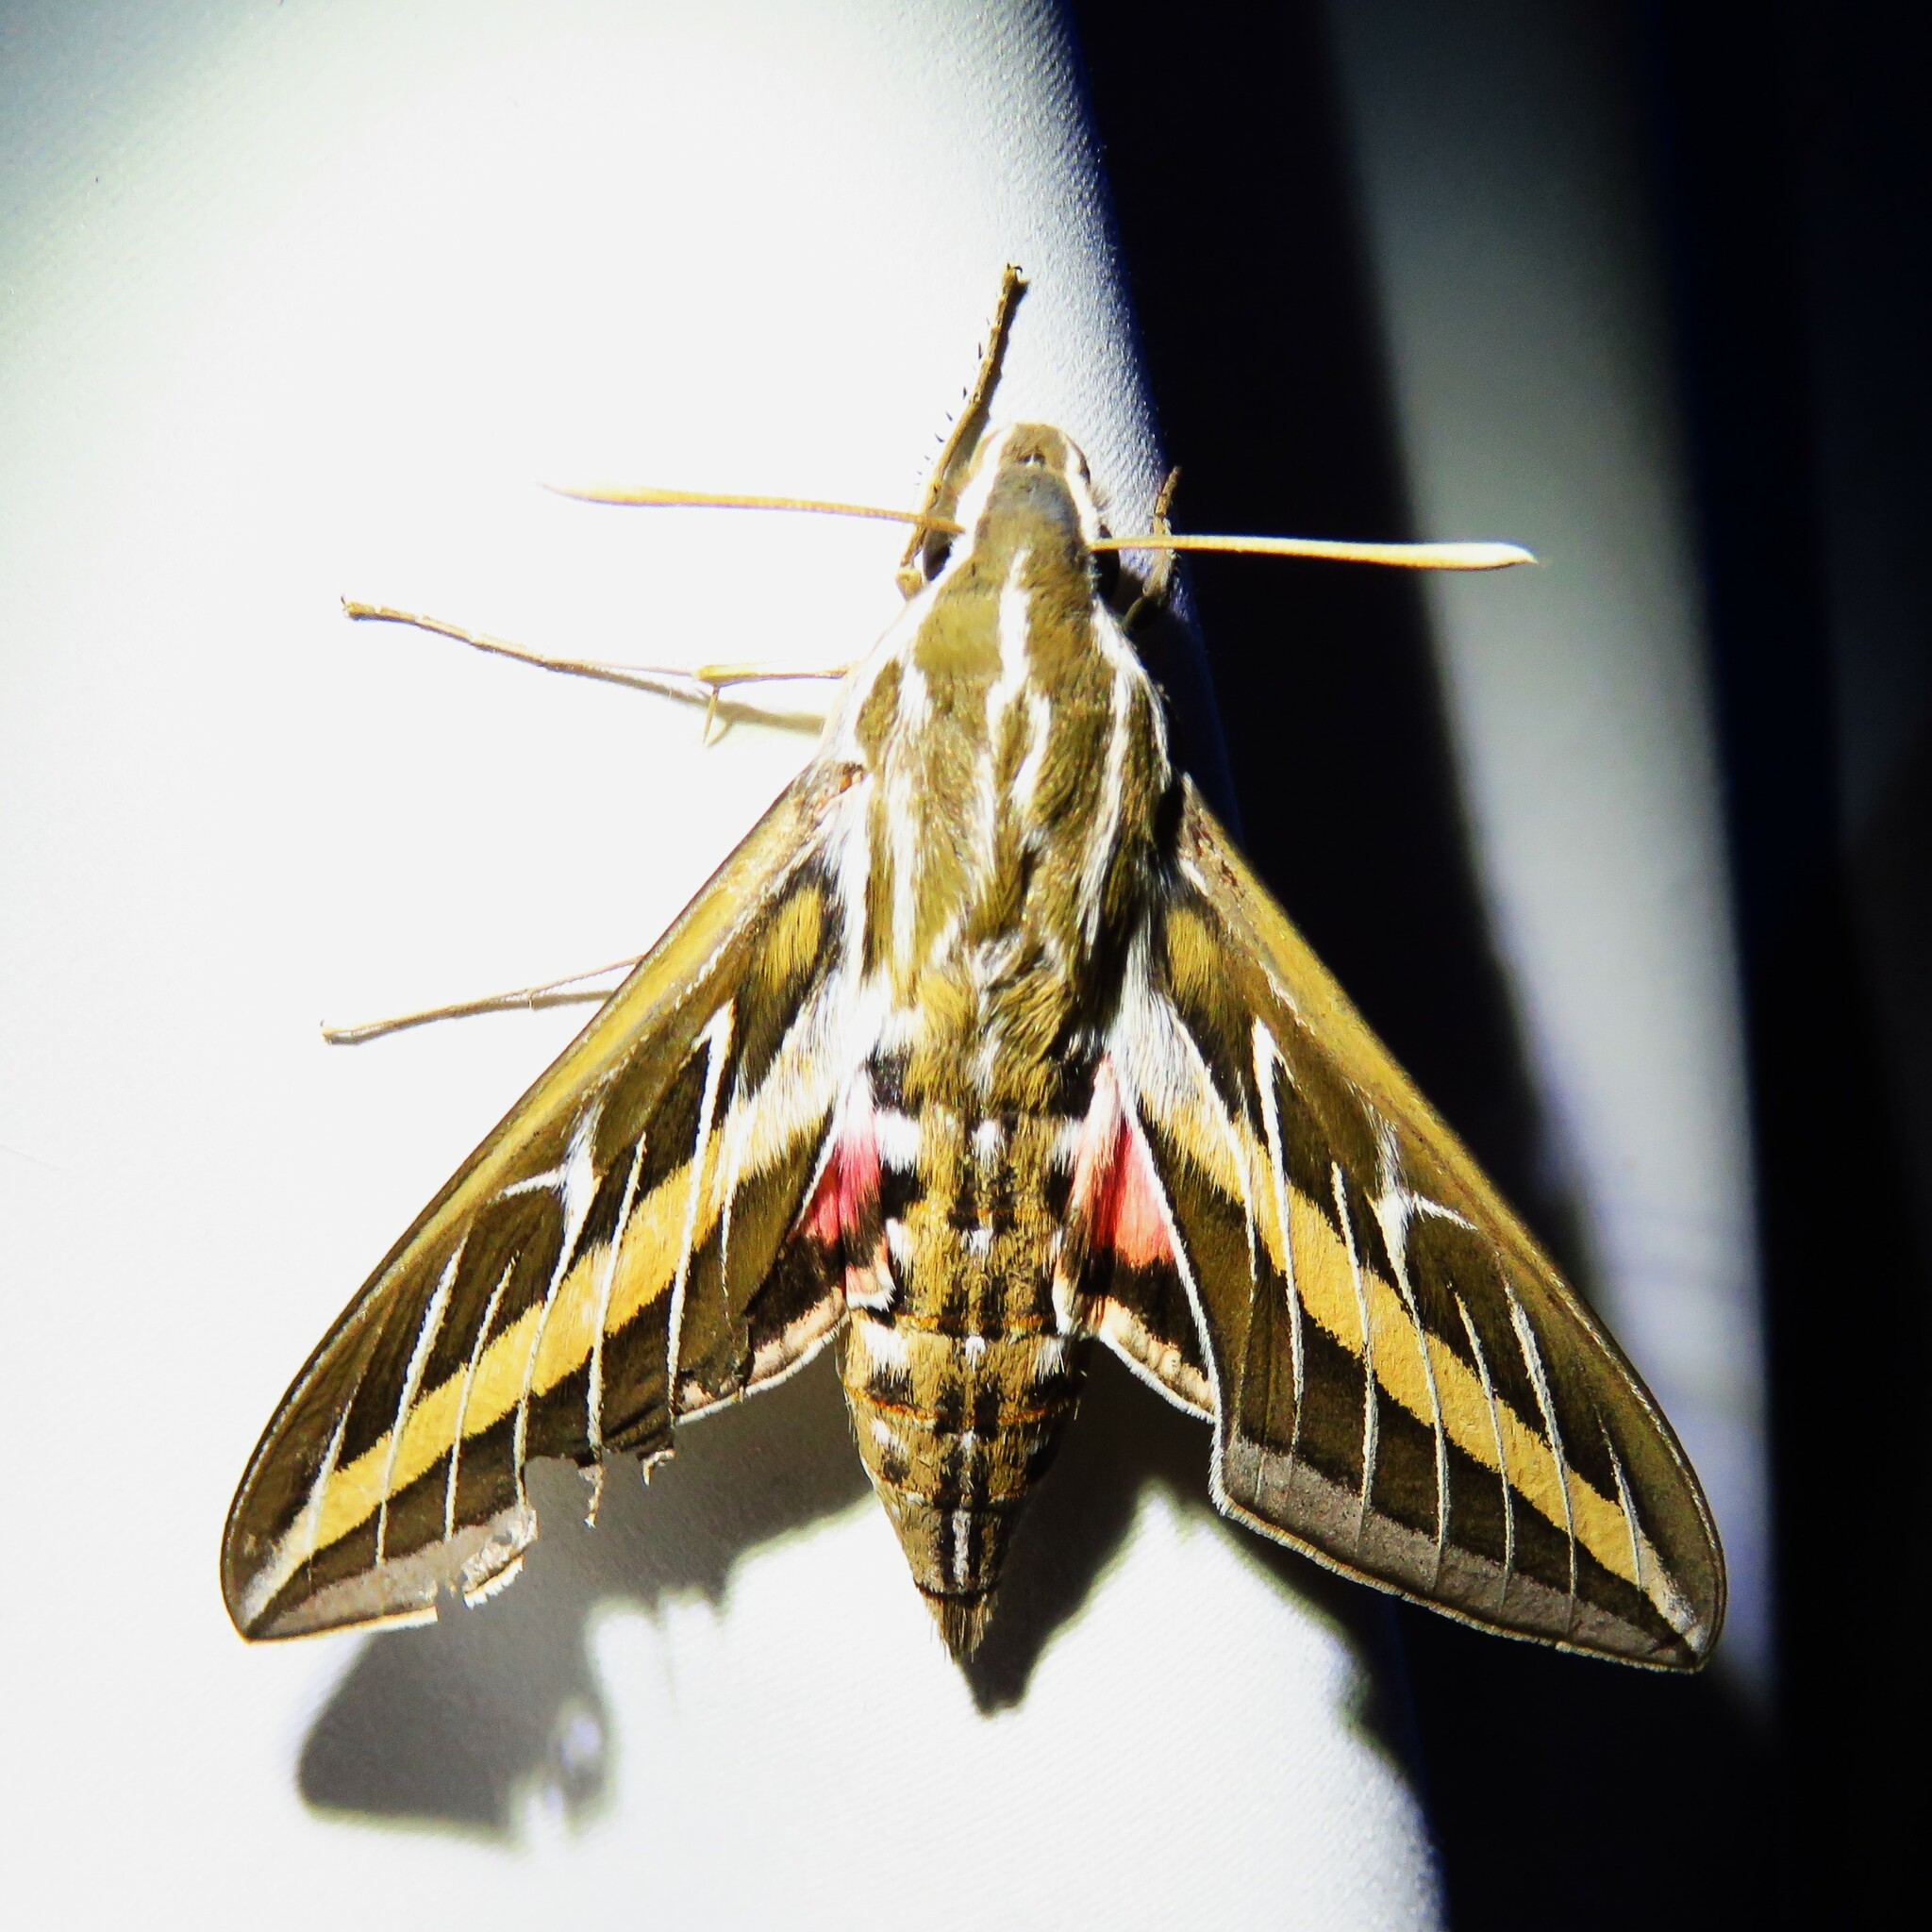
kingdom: Animalia
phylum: Arthropoda
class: Insecta
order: Lepidoptera
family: Sphingidae
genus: Hyles
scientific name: Hyles lineata
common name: White-lined sphinx
